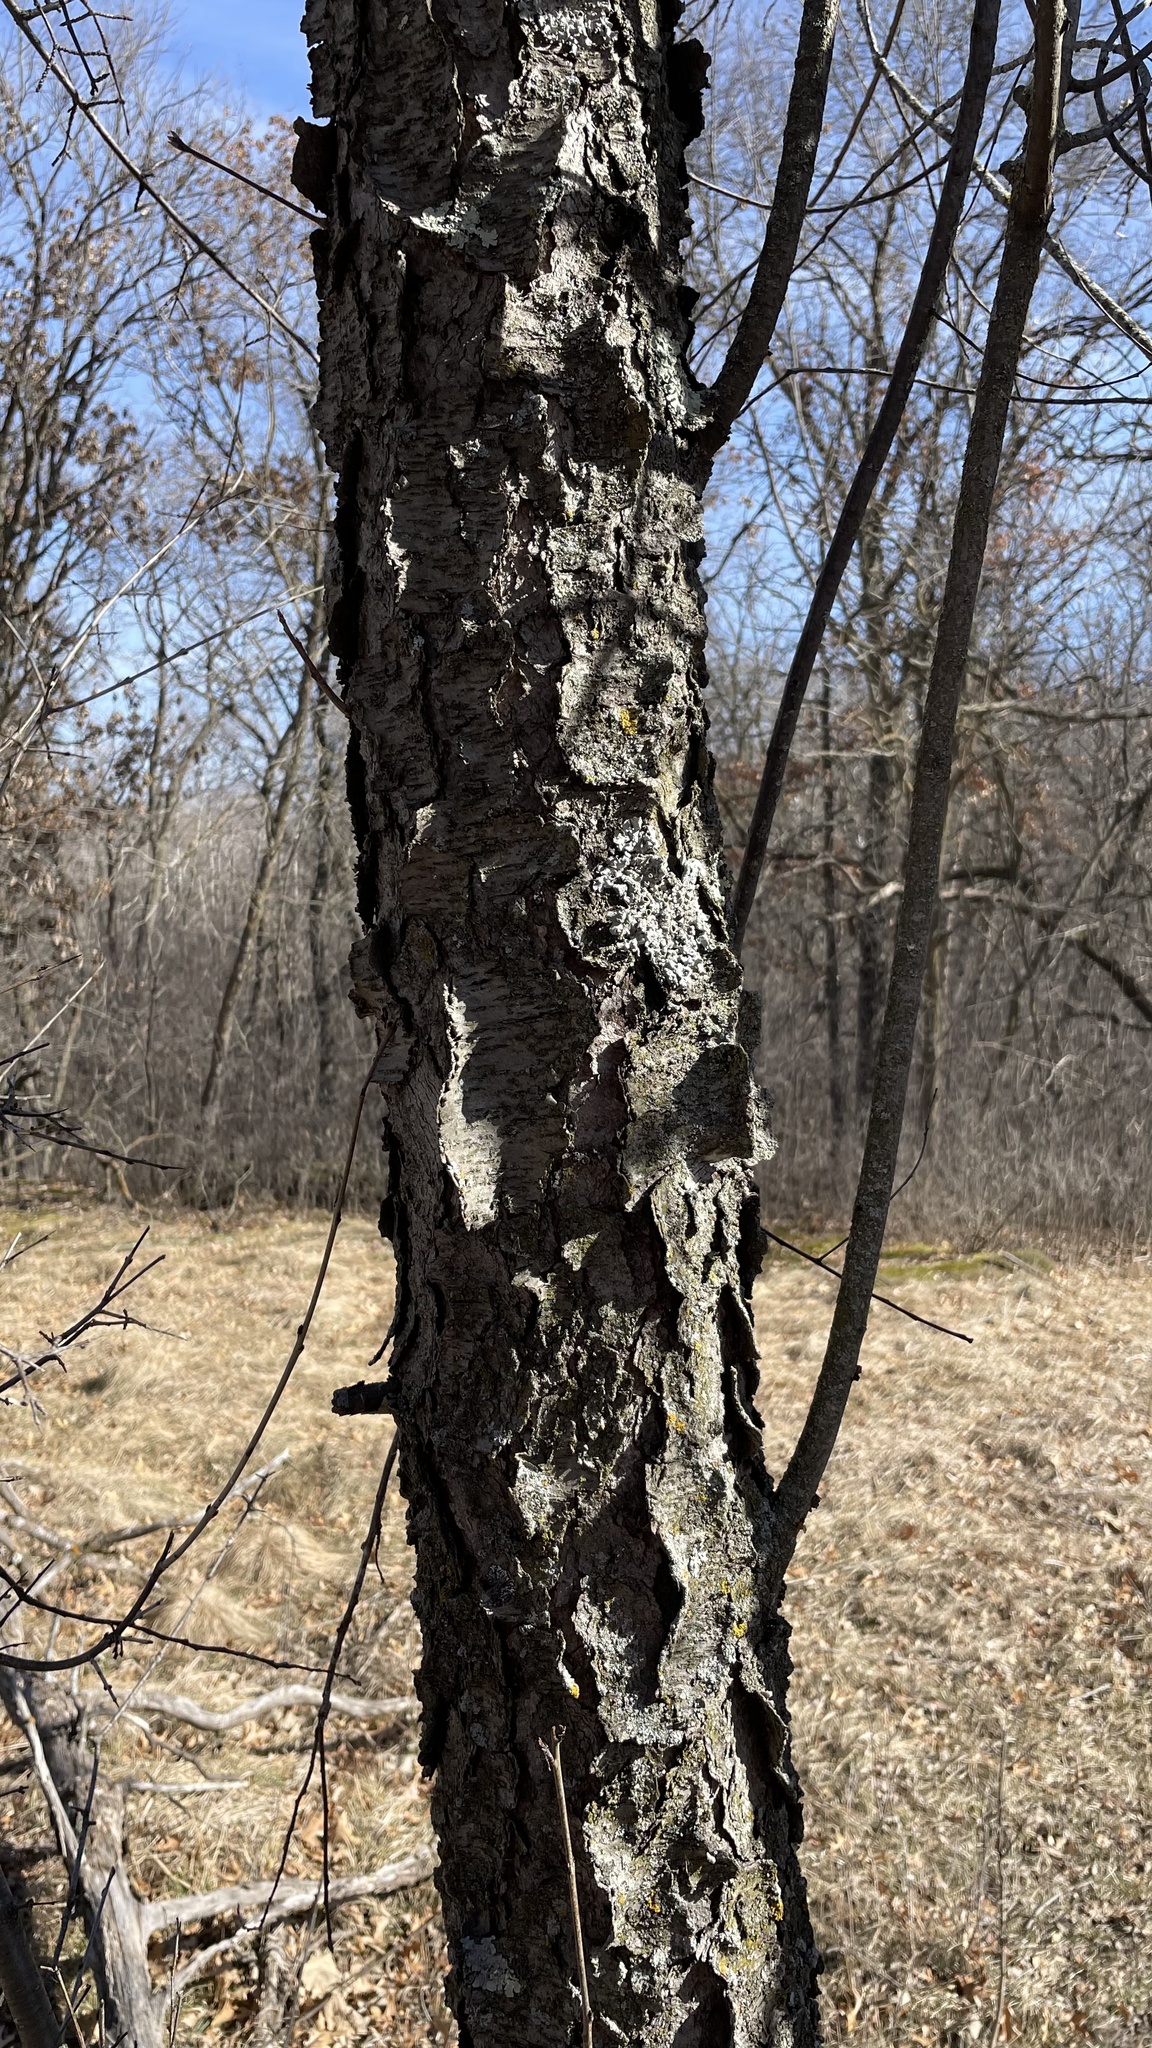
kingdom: Plantae
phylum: Tracheophyta
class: Magnoliopsida
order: Rosales
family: Rosaceae
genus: Prunus
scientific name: Prunus serotina
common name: Black cherry
